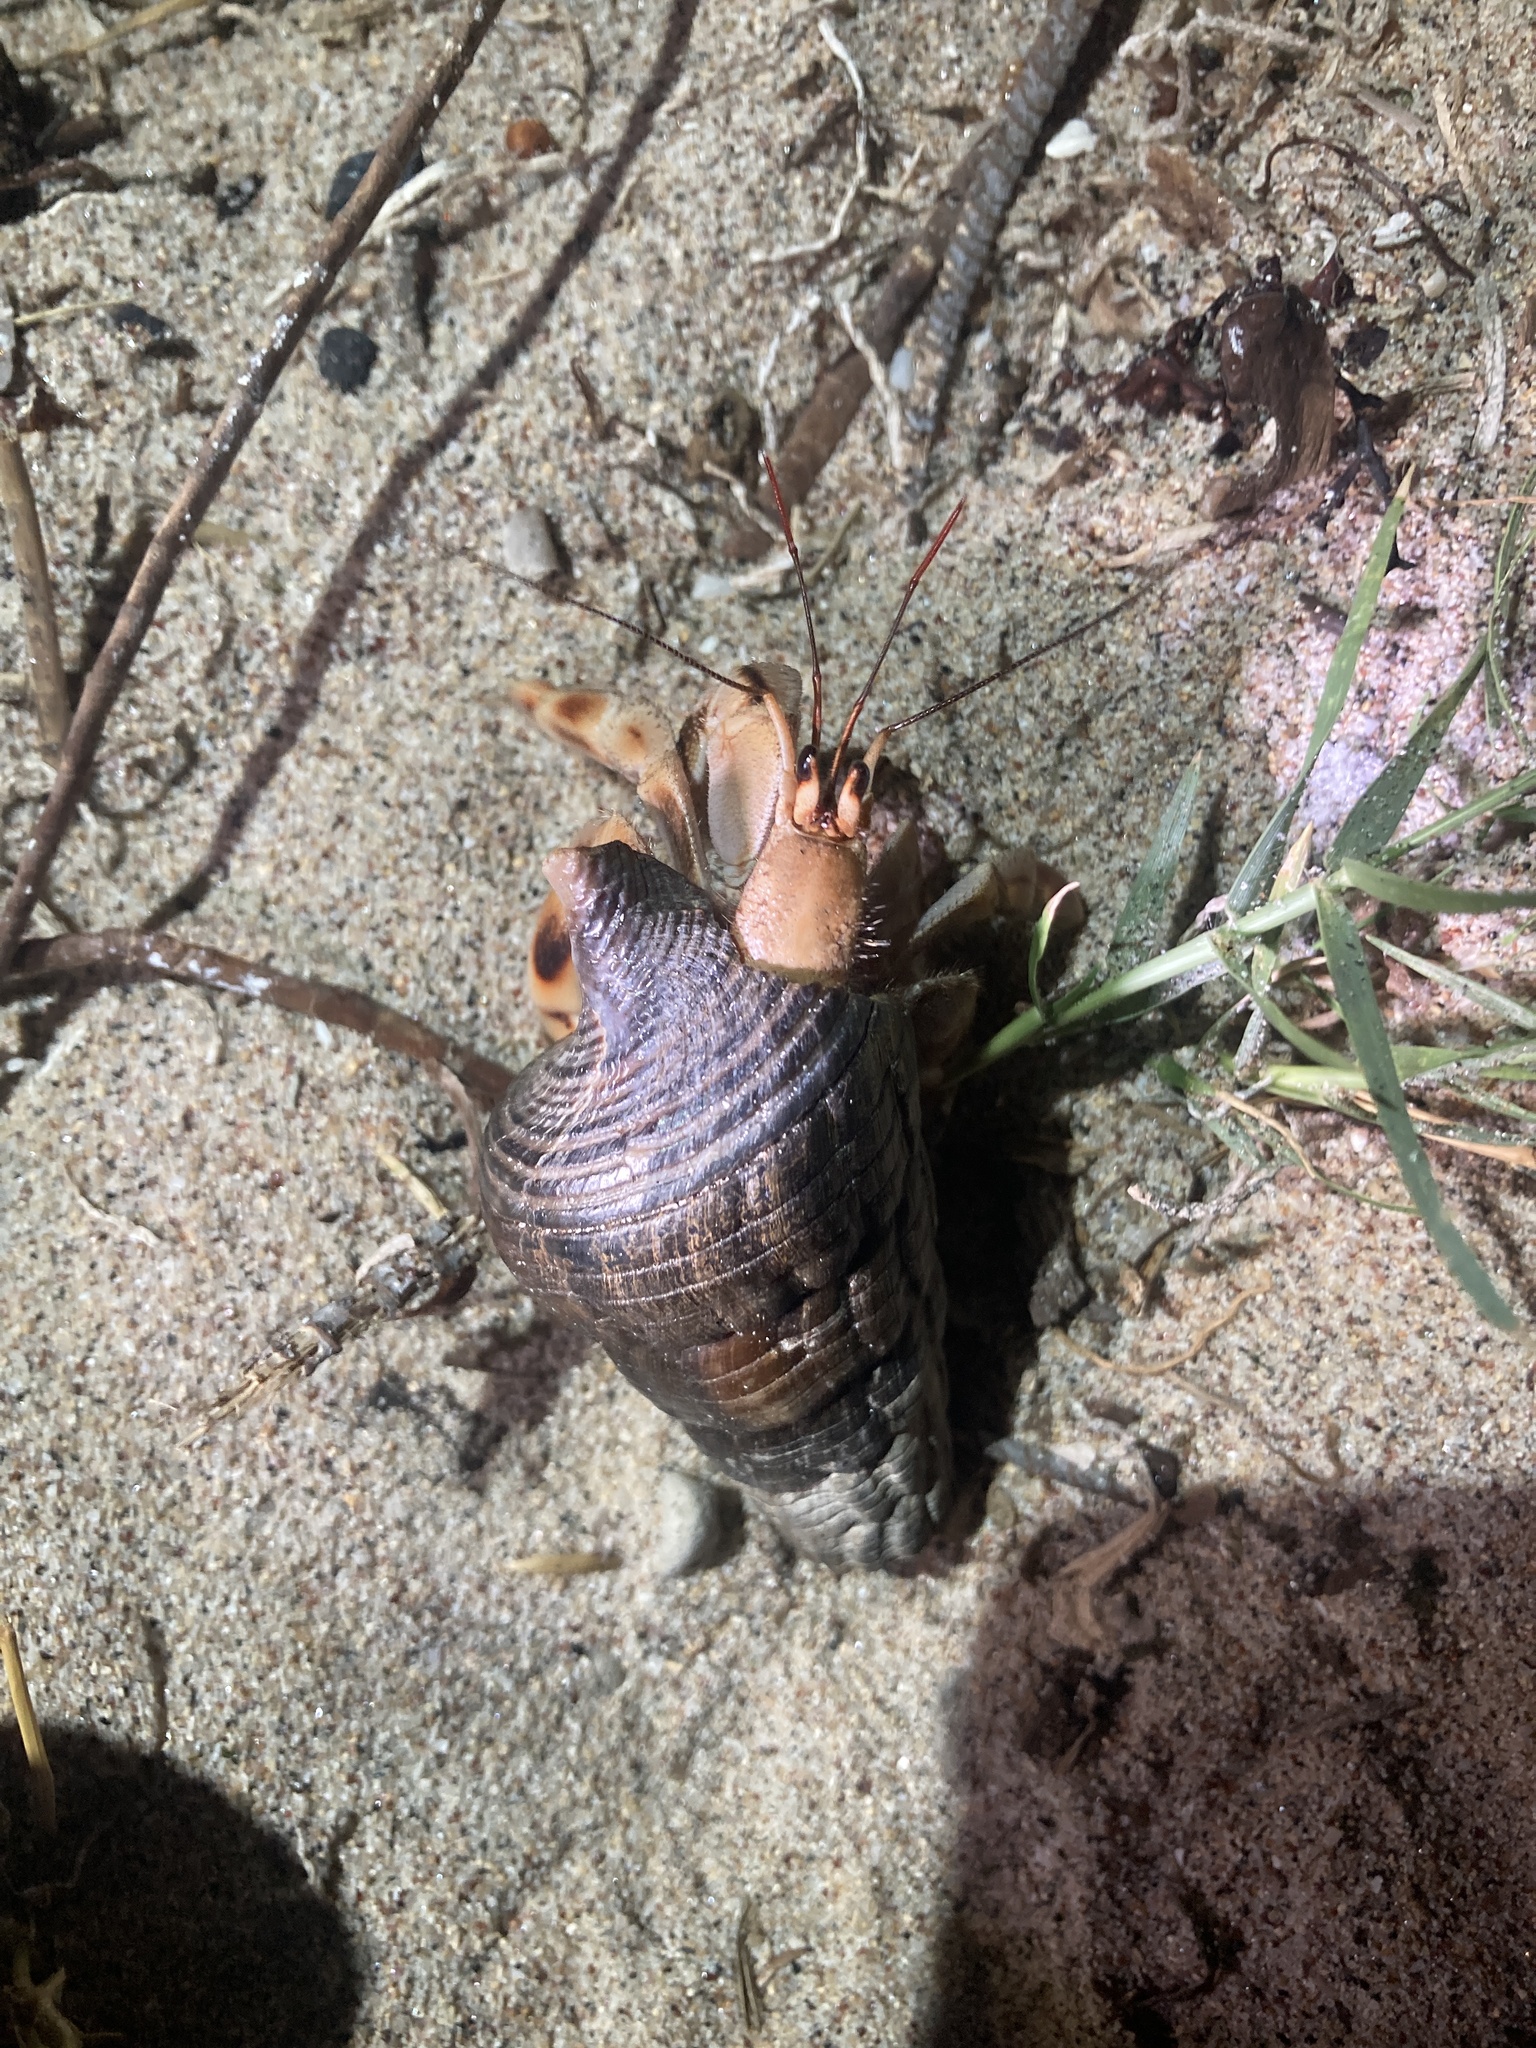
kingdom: Animalia
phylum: Arthropoda
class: Malacostraca
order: Decapoda
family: Coenobitidae
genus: Coenobita
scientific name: Coenobita violascens
